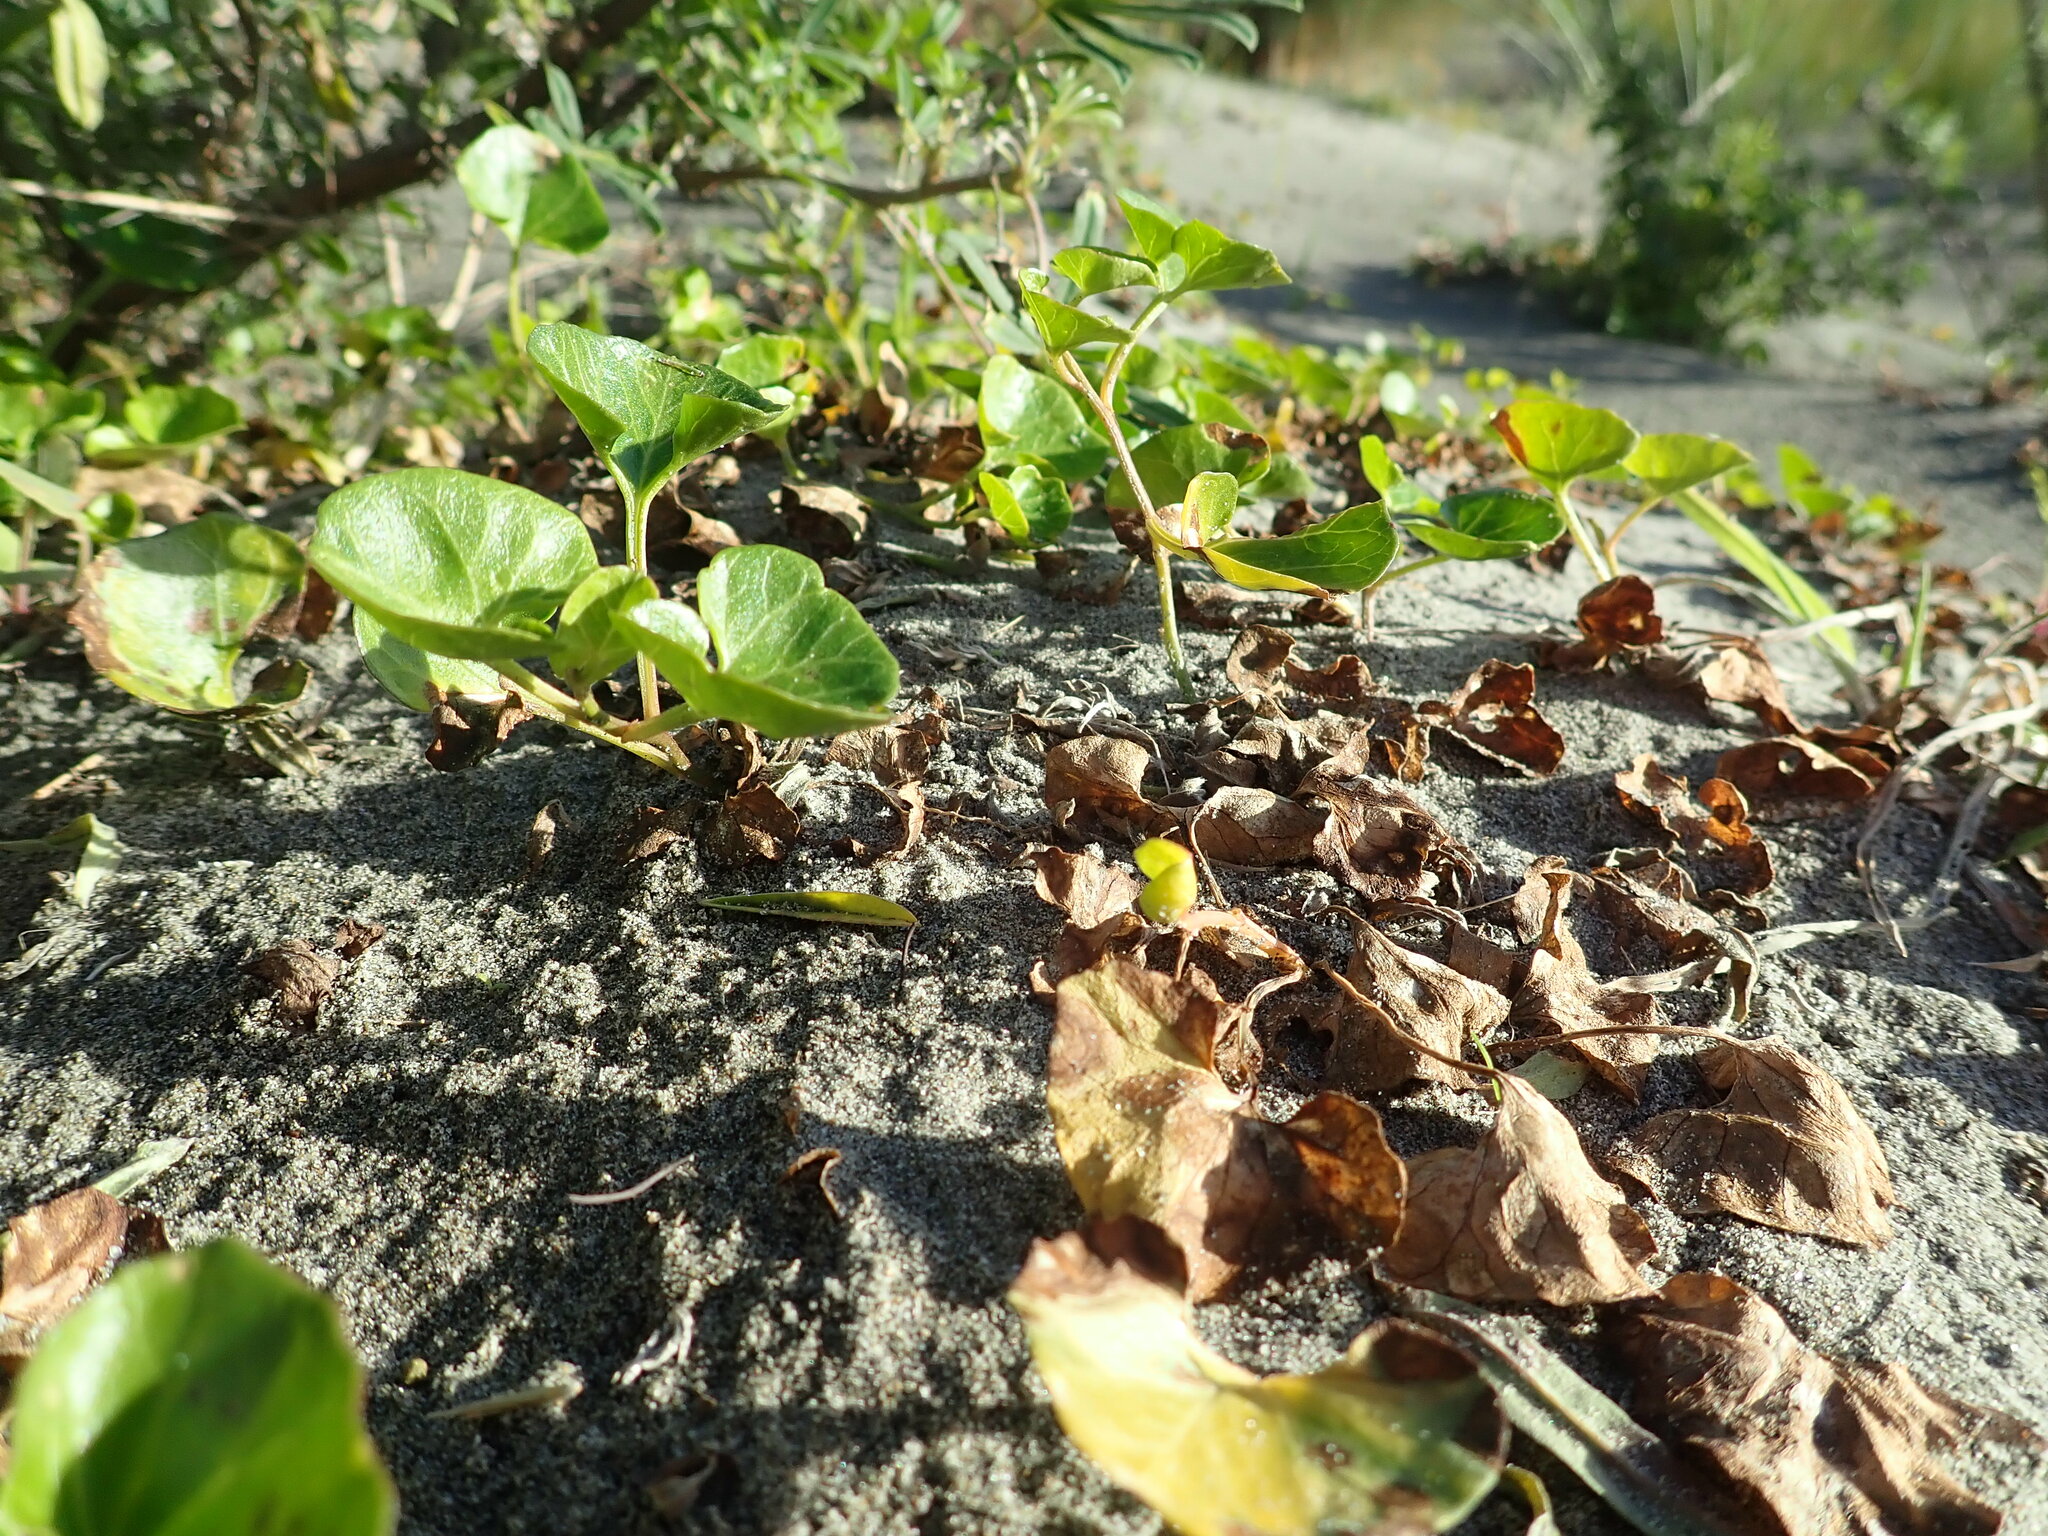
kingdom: Plantae
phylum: Tracheophyta
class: Magnoliopsida
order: Solanales
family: Convolvulaceae
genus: Calystegia
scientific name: Calystegia soldanella
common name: Sea bindweed
